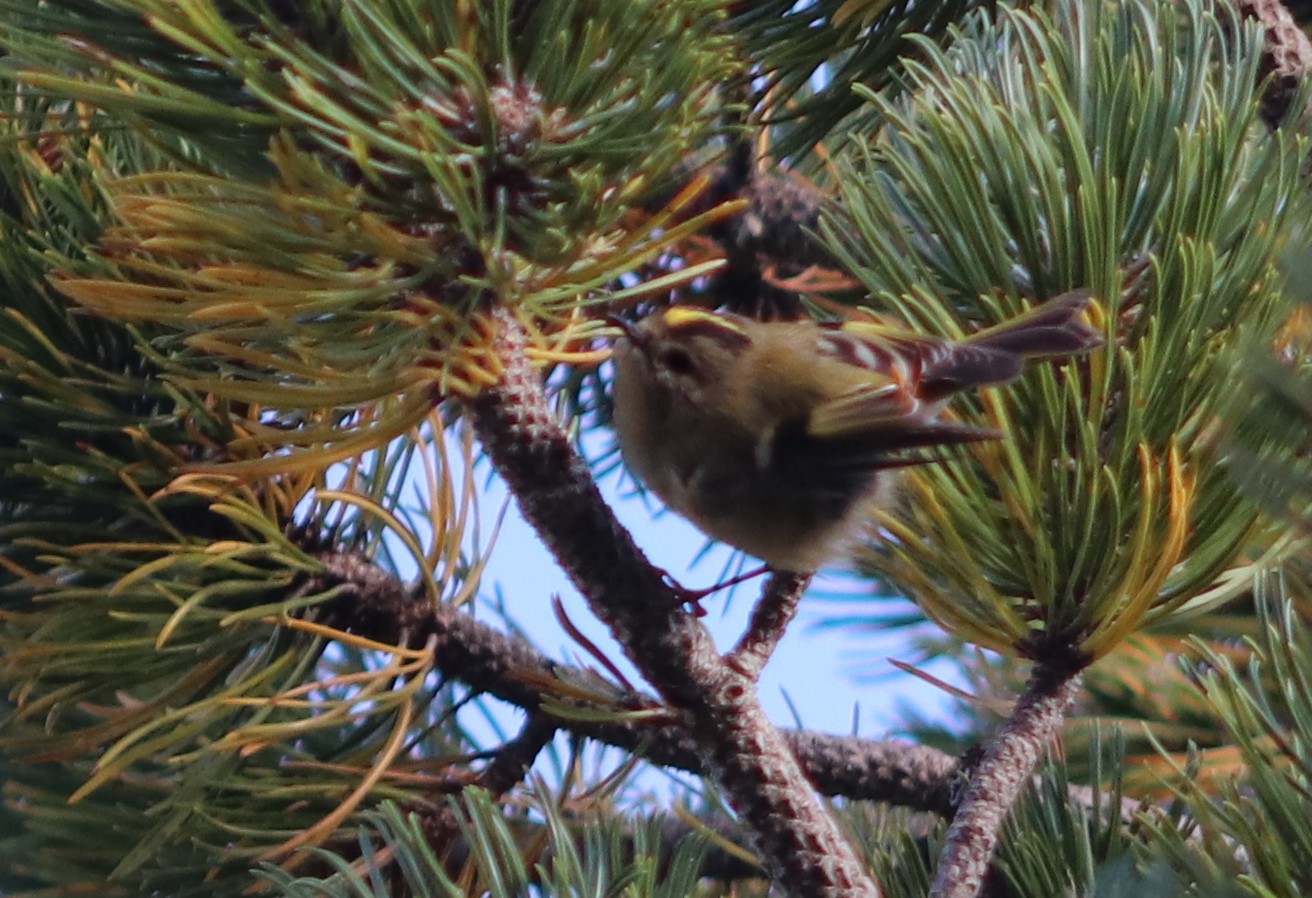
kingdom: Animalia
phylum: Chordata
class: Aves
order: Passeriformes
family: Regulidae
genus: Regulus
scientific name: Regulus regulus
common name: Goldcrest
